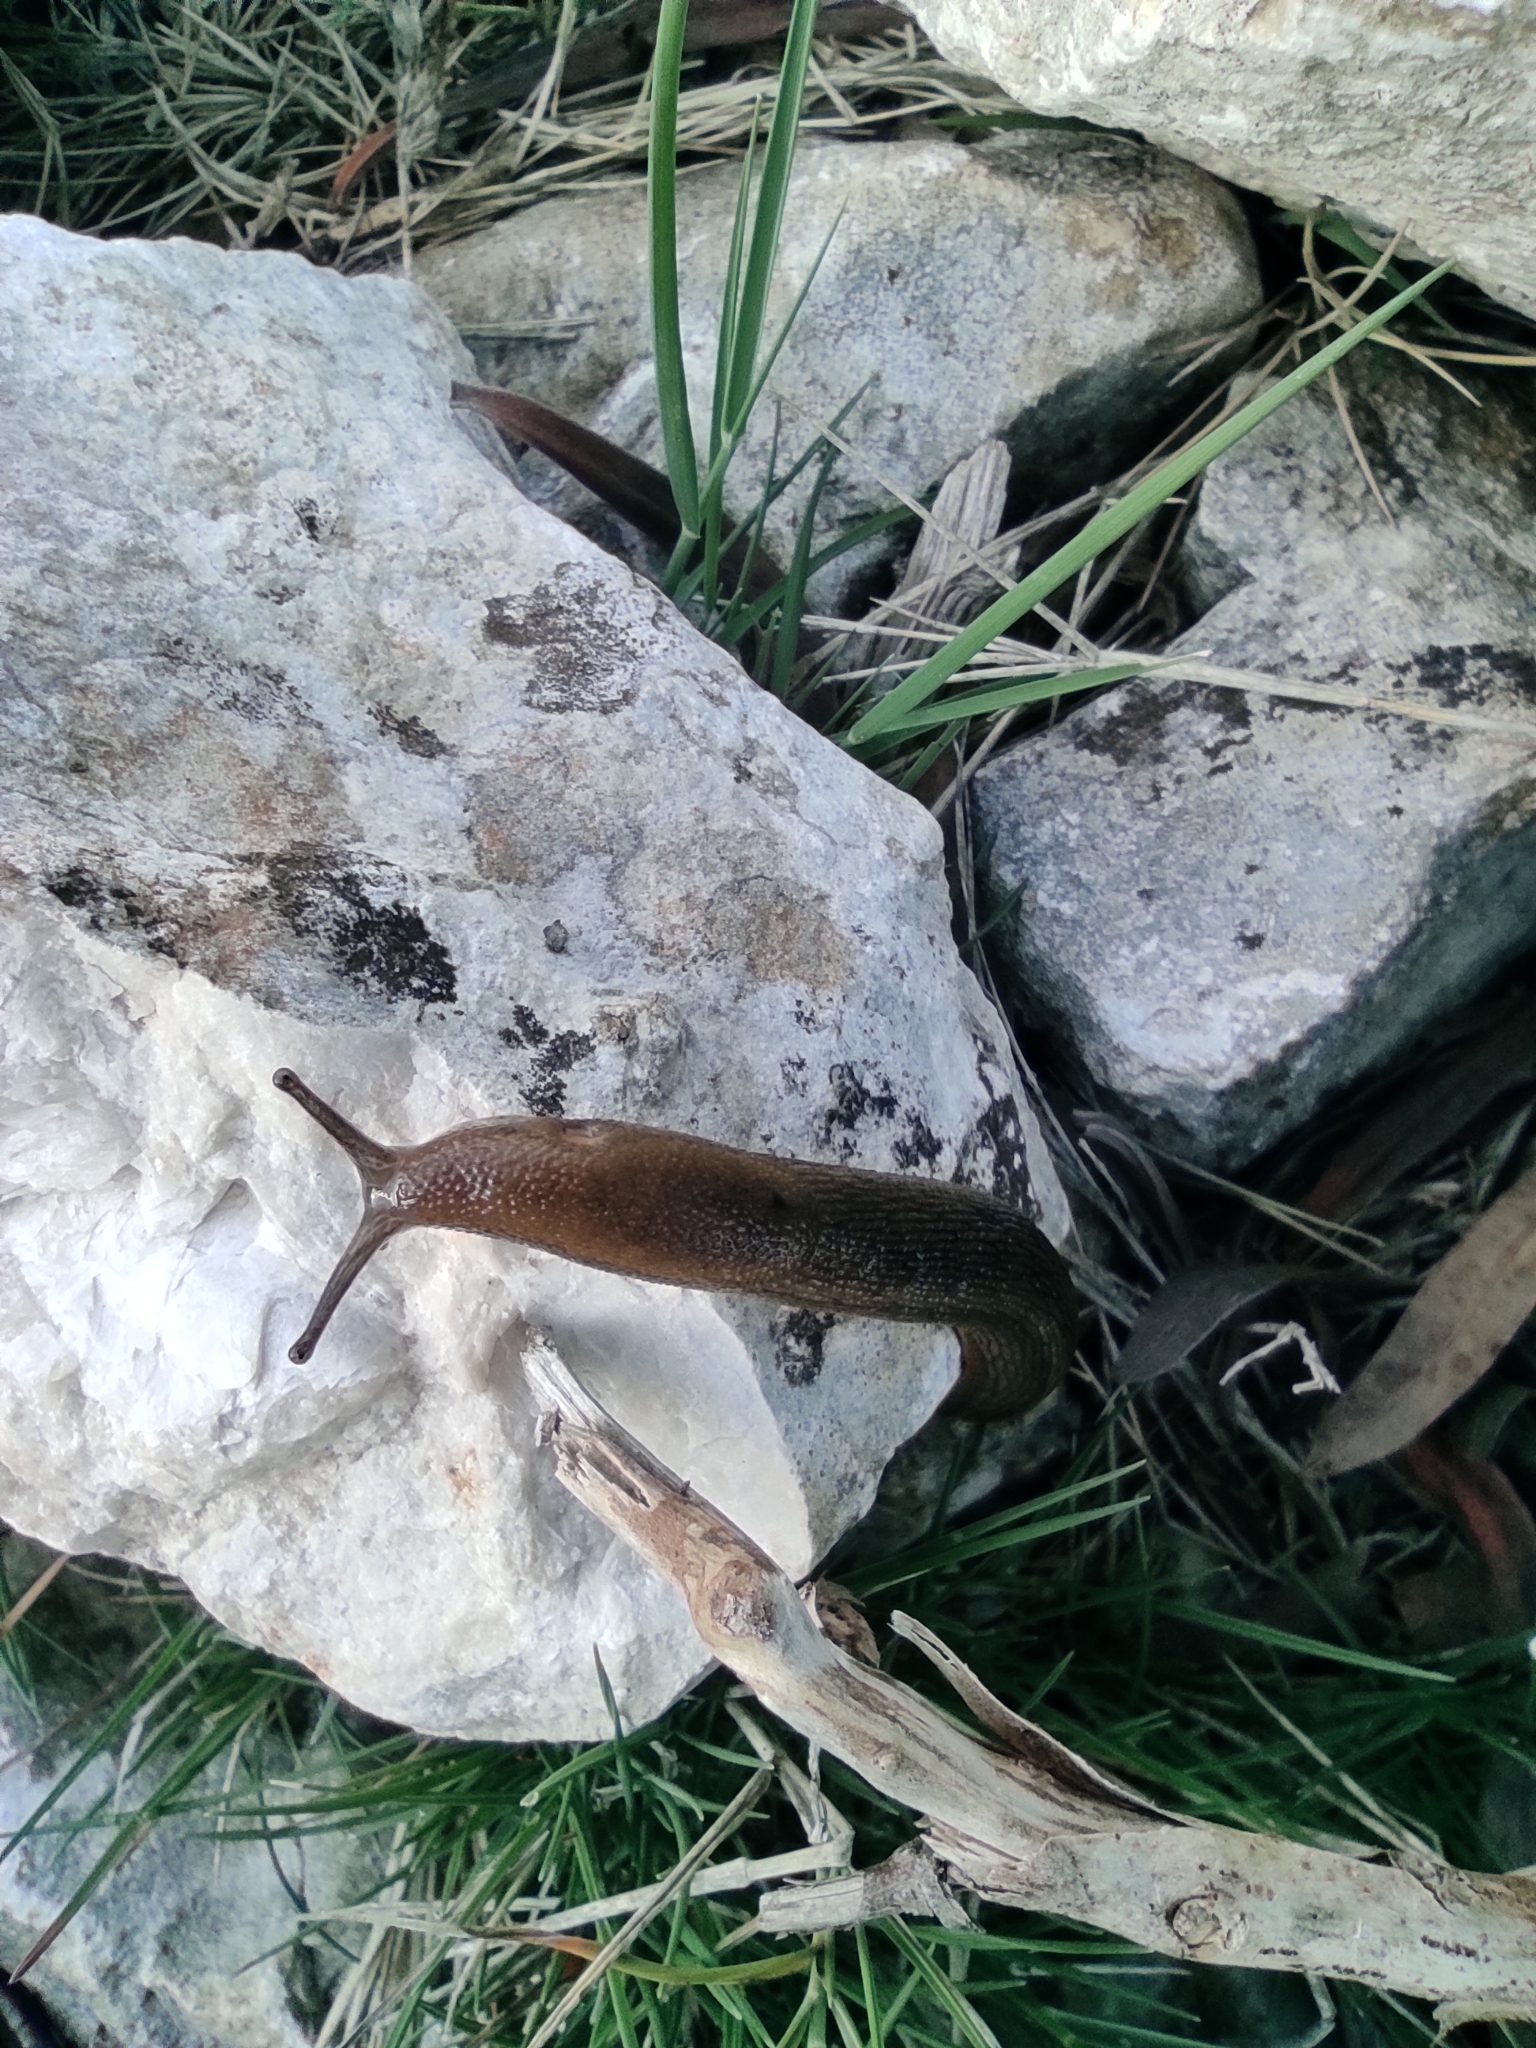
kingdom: Animalia
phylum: Mollusca
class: Gastropoda
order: Stylommatophora
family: Arionidae
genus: Arion
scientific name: Arion hortensis
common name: Garden arion
